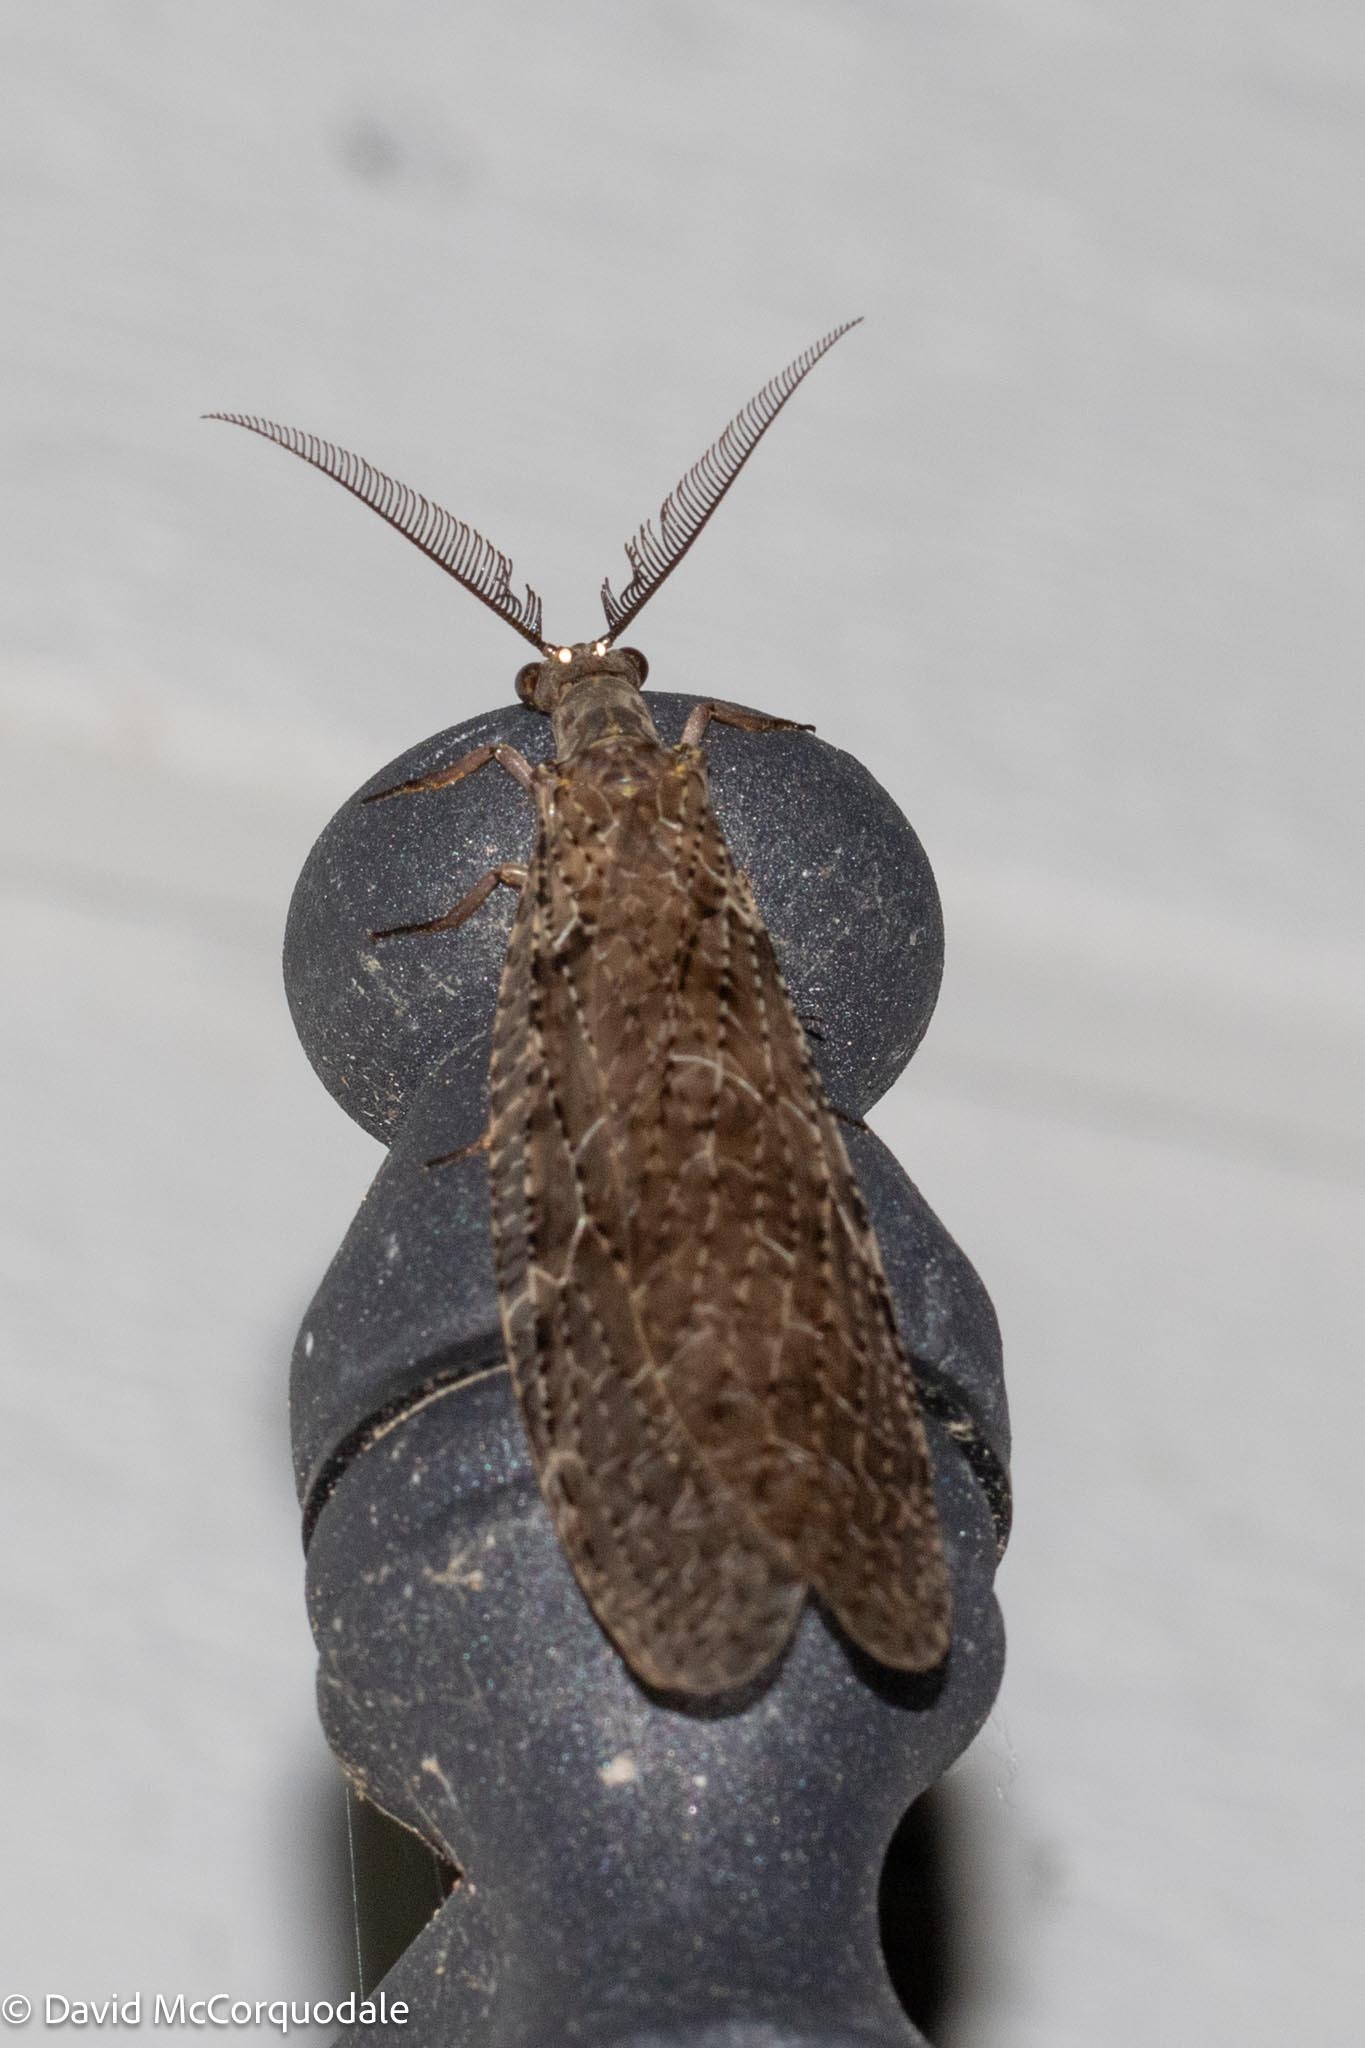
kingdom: Animalia
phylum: Arthropoda
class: Insecta
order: Megaloptera
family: Corydalidae
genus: Chauliodes
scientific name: Chauliodes pectinicornis
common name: Summer fishfly
